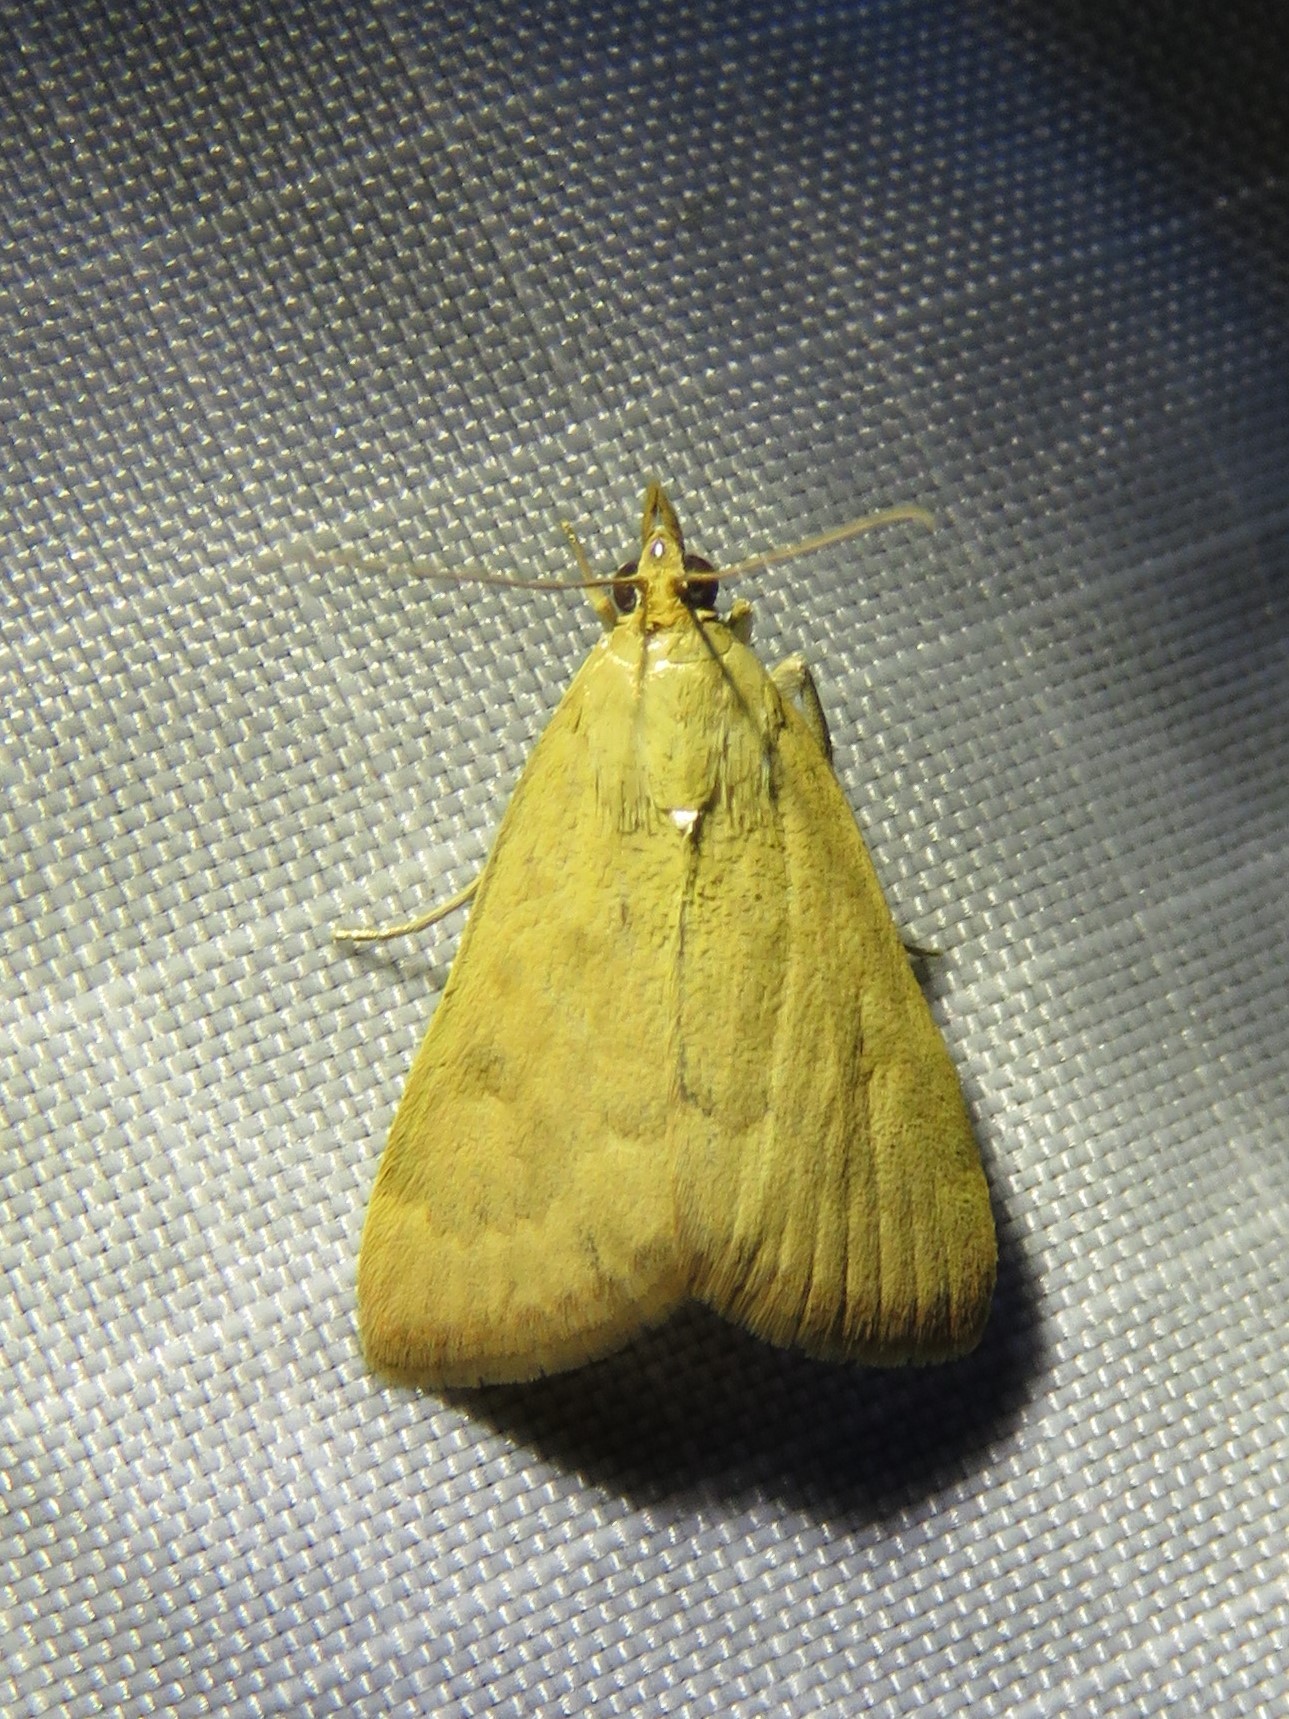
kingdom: Animalia
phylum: Arthropoda
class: Insecta
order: Lepidoptera
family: Crambidae
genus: Achyra
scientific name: Achyra rantalis
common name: Garden webworm
